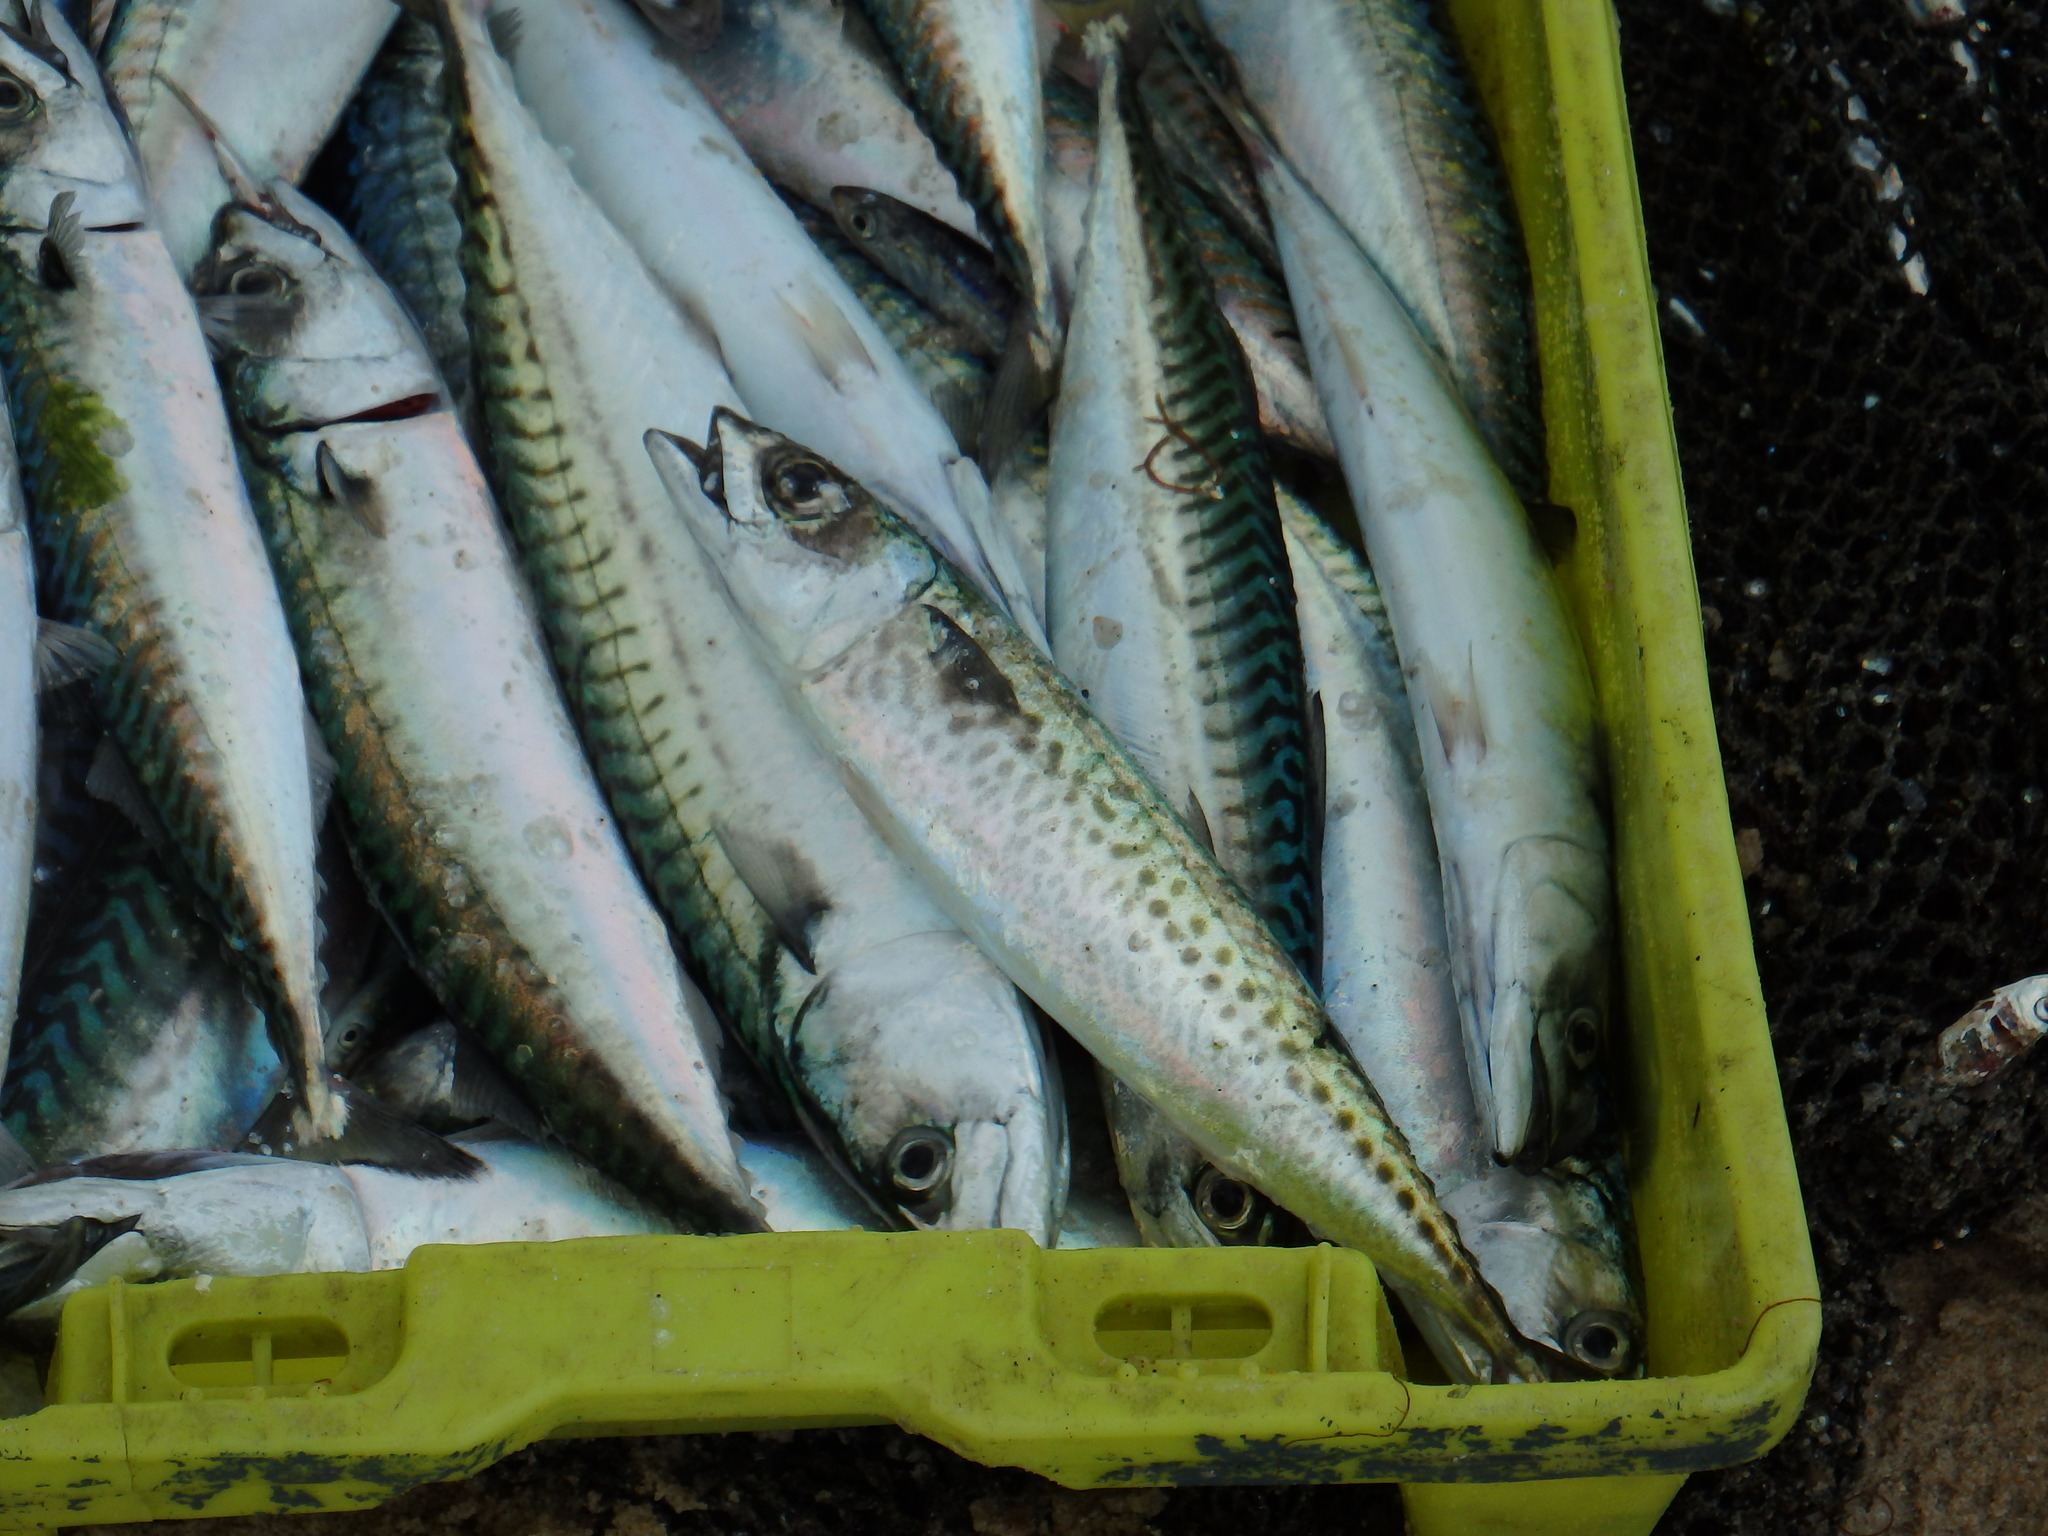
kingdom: Animalia
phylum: Chordata
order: Perciformes
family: Scombridae
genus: Scomber
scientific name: Scomber colias
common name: Atlantic chub mackerel
